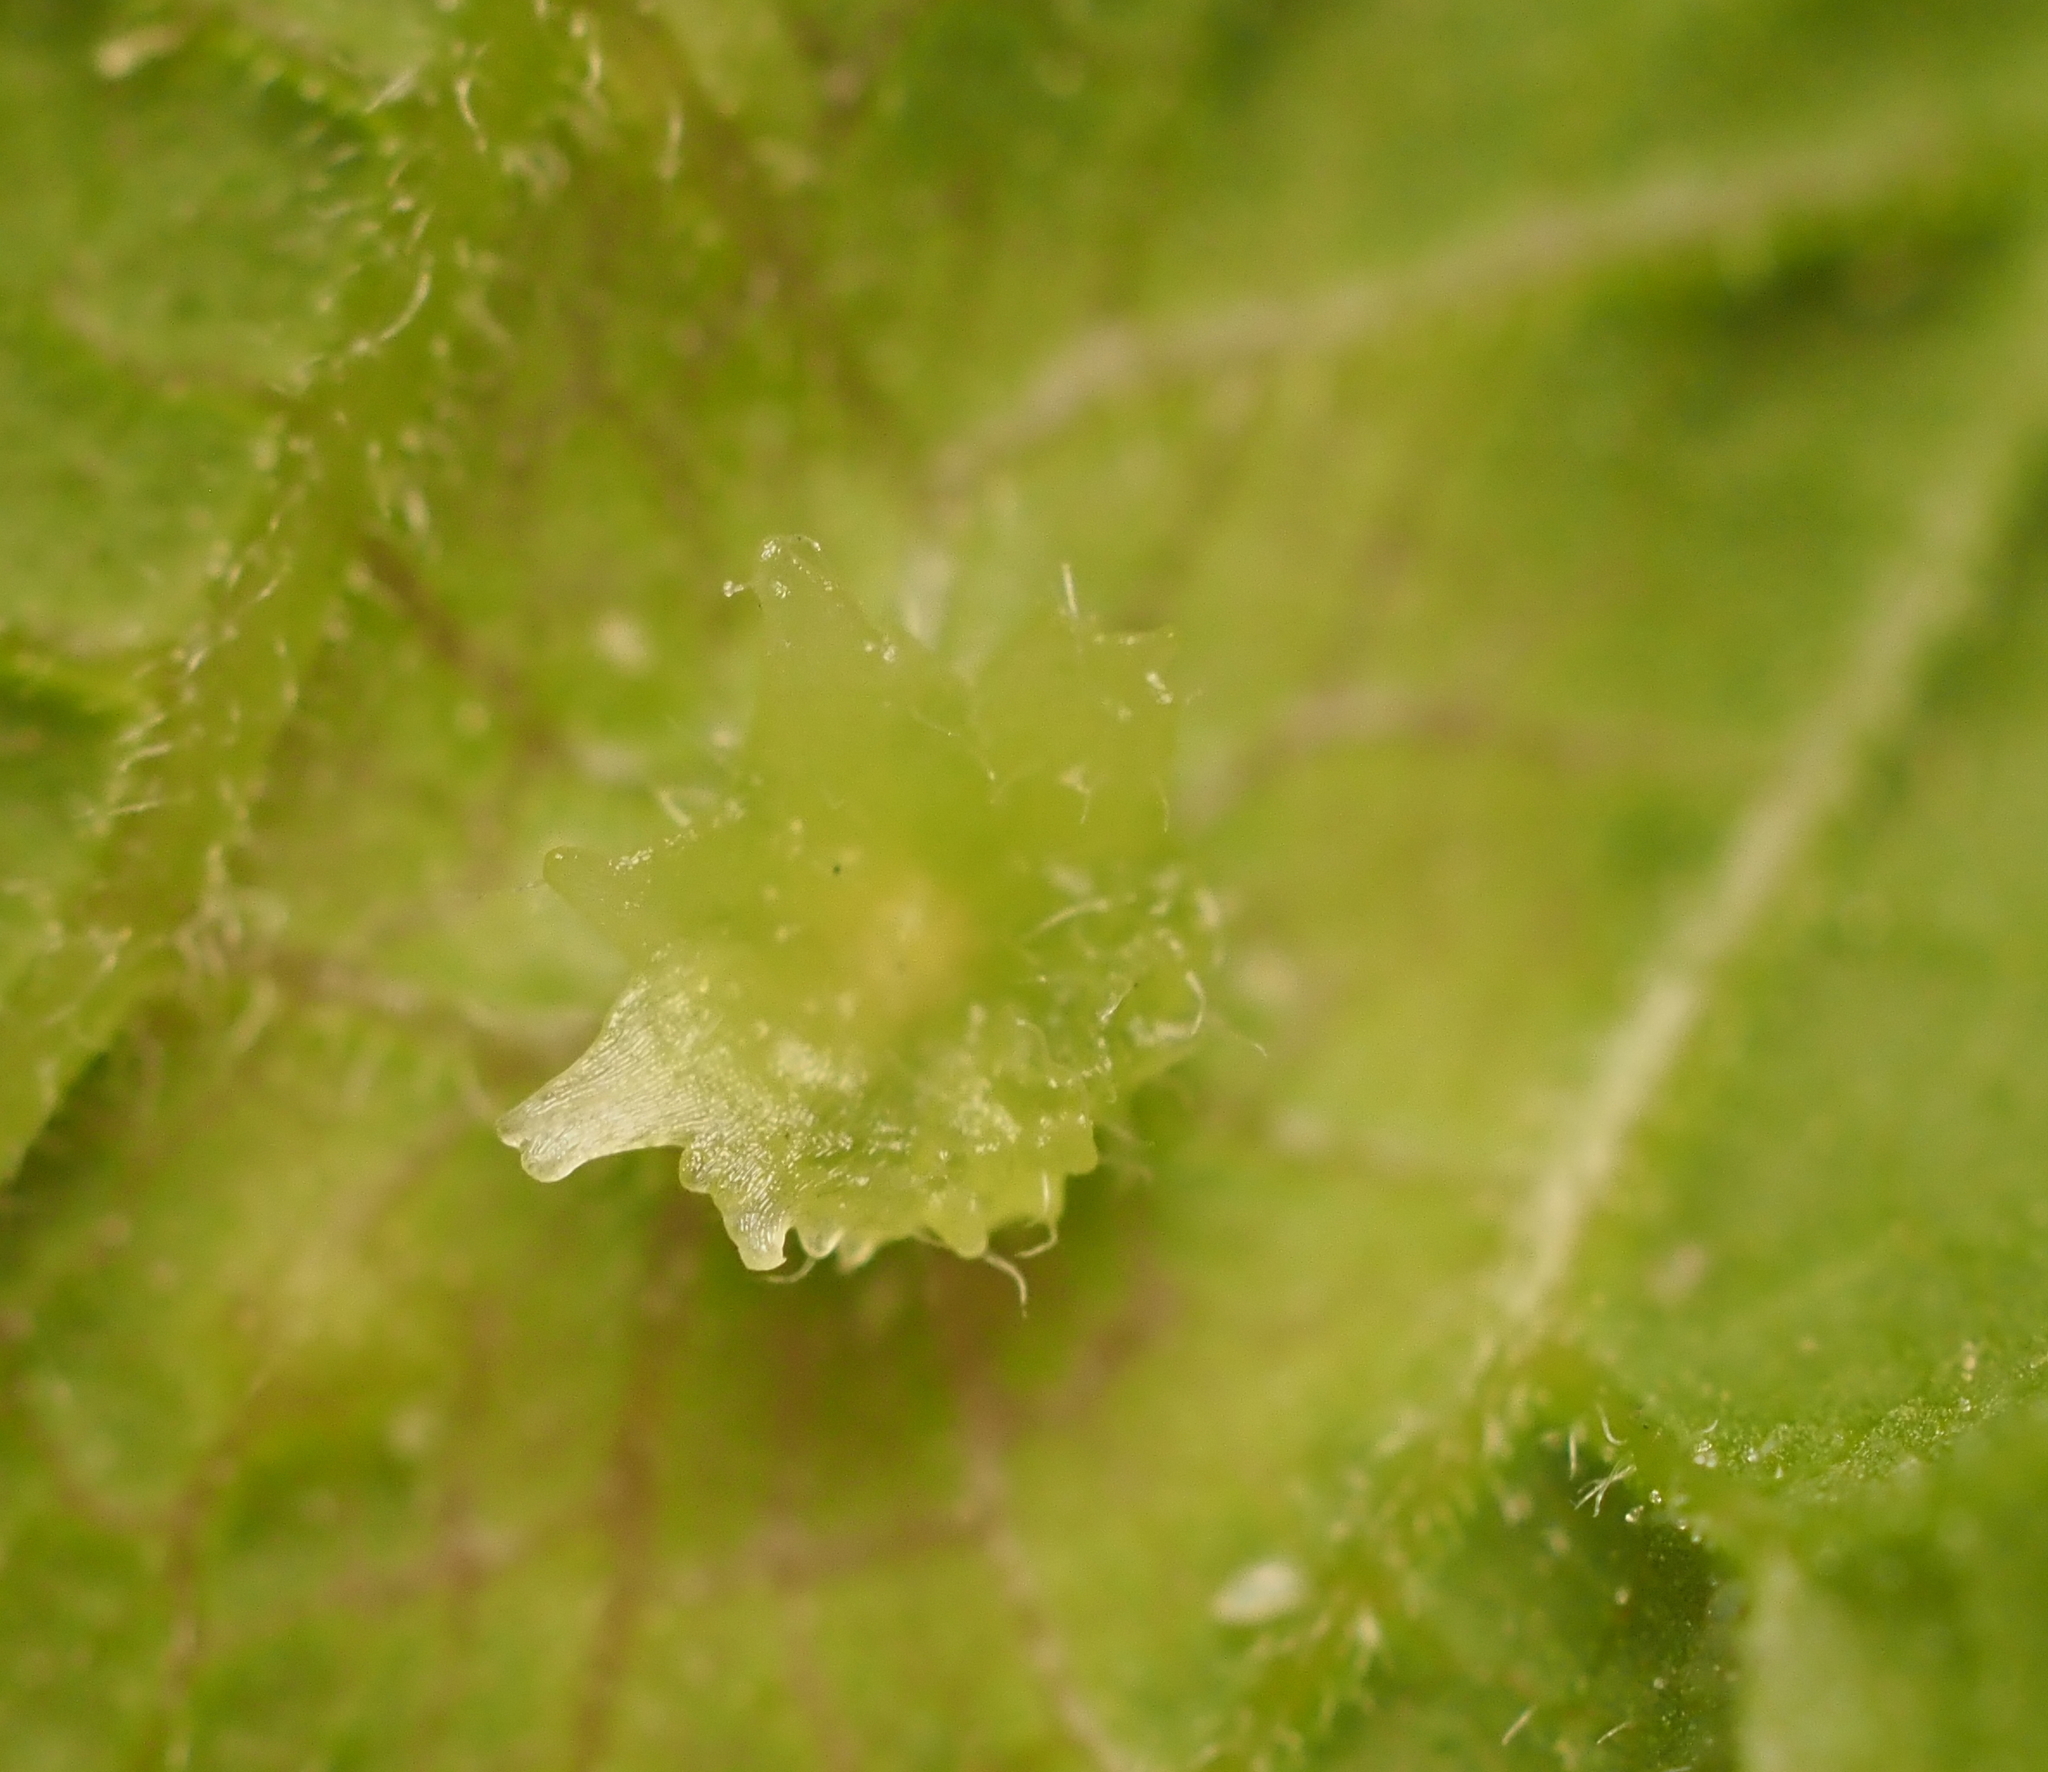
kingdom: Animalia
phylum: Arthropoda
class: Insecta
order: Hemiptera
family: Aphalaridae
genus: Pachypsylla
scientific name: Pachypsylla celtidisasterisca
